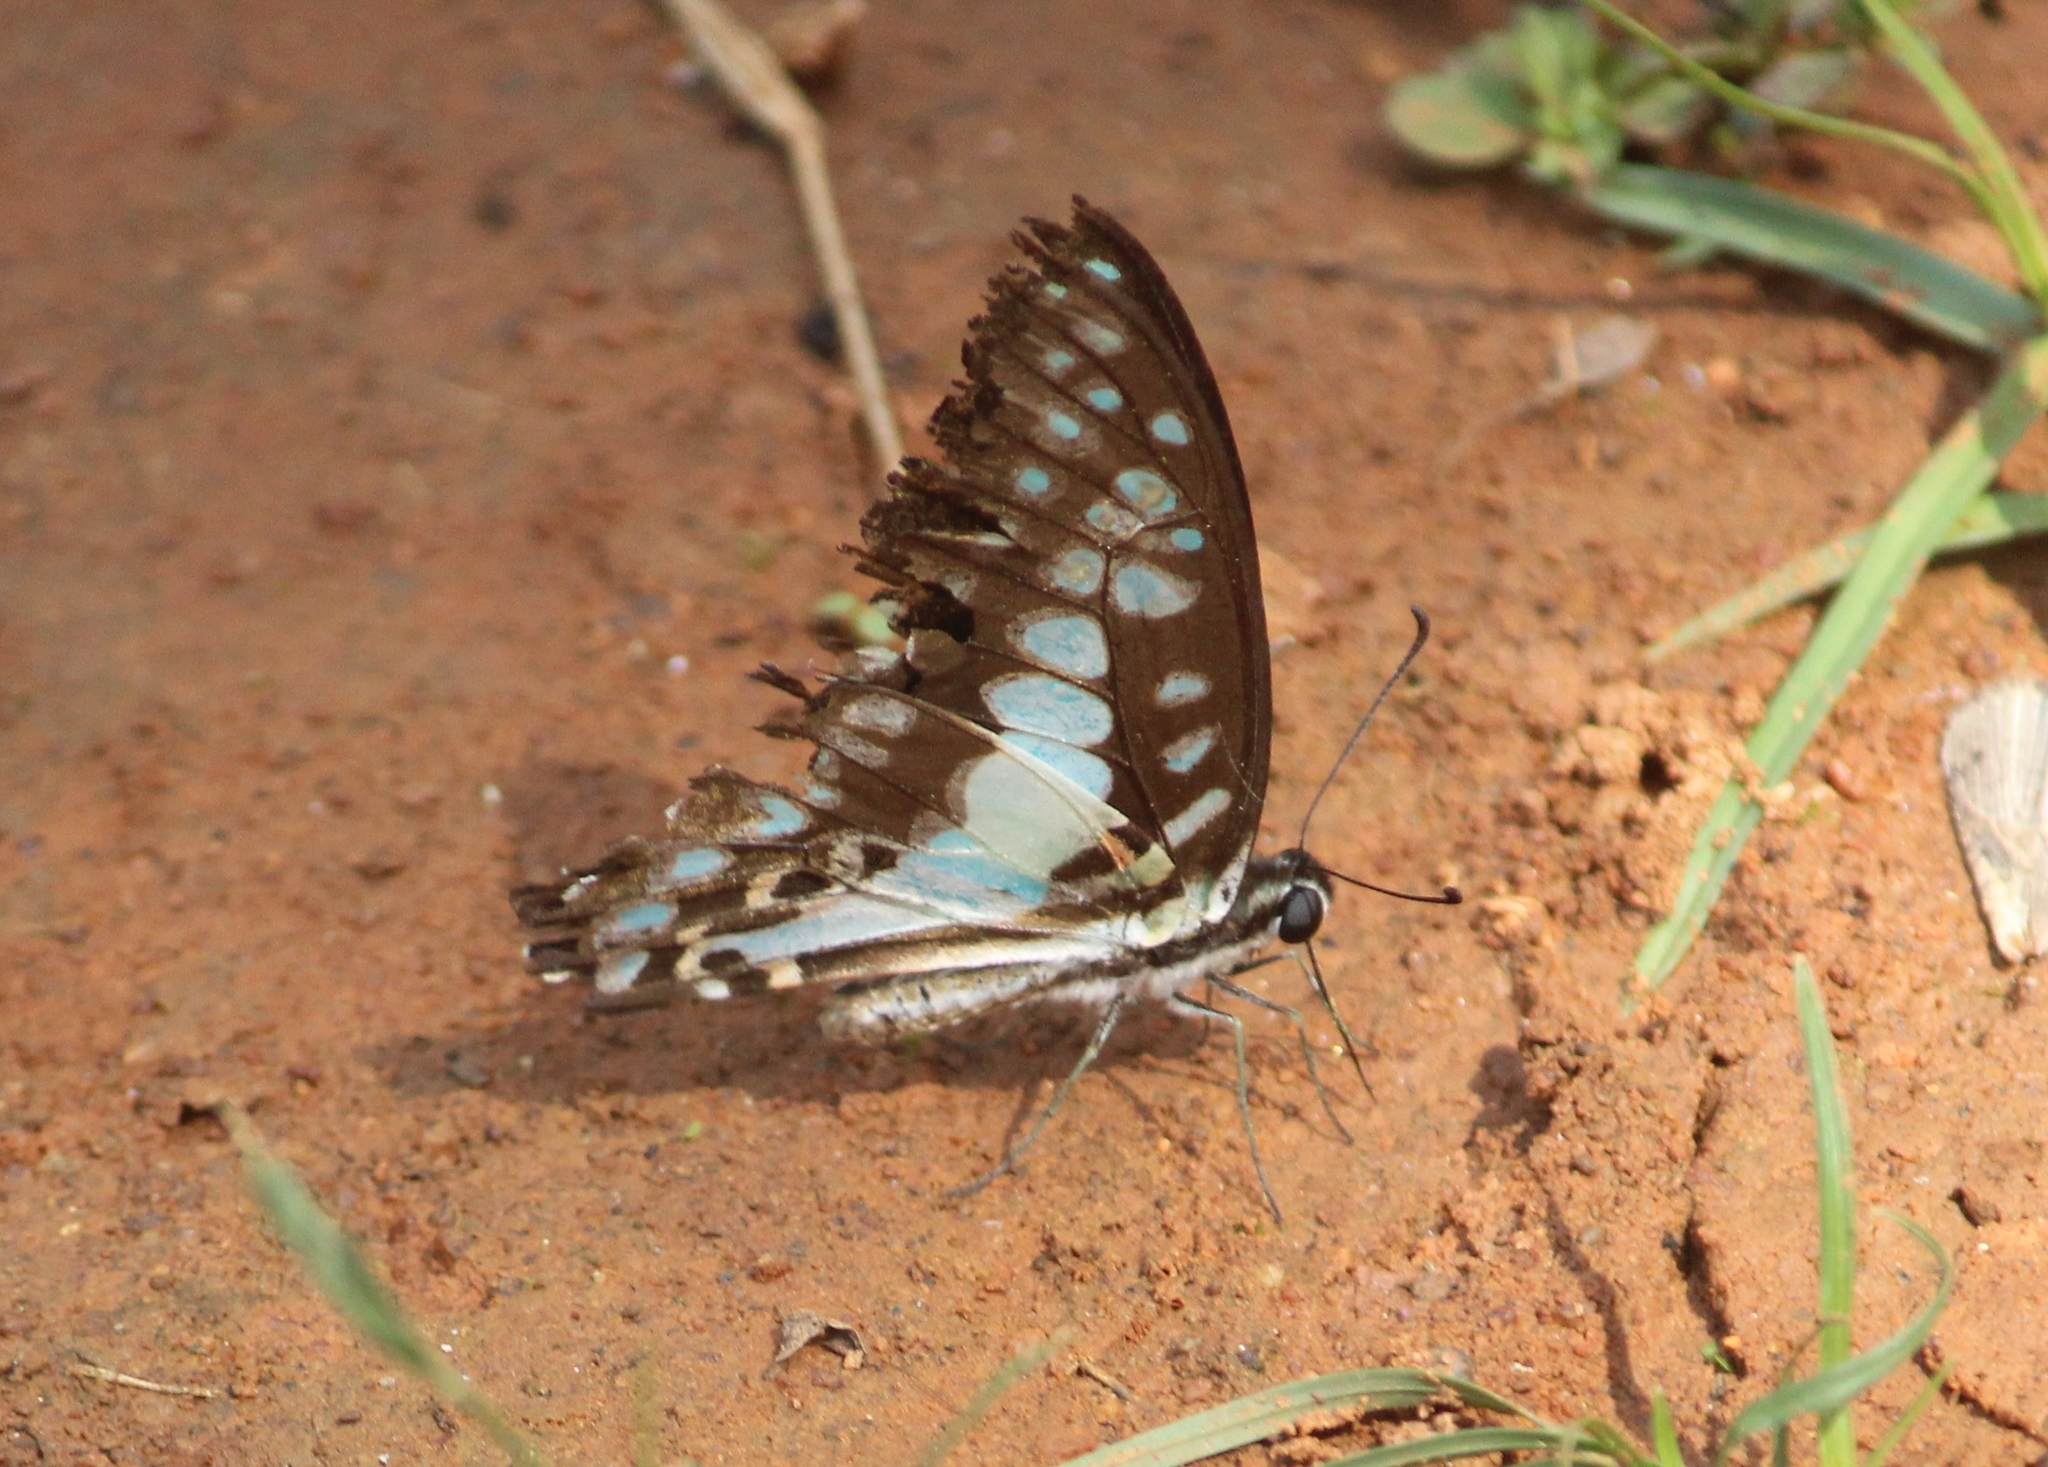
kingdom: Animalia
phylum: Arthropoda
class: Insecta
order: Lepidoptera
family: Papilionidae
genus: Graphium
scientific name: Graphium doson
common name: Common jay
